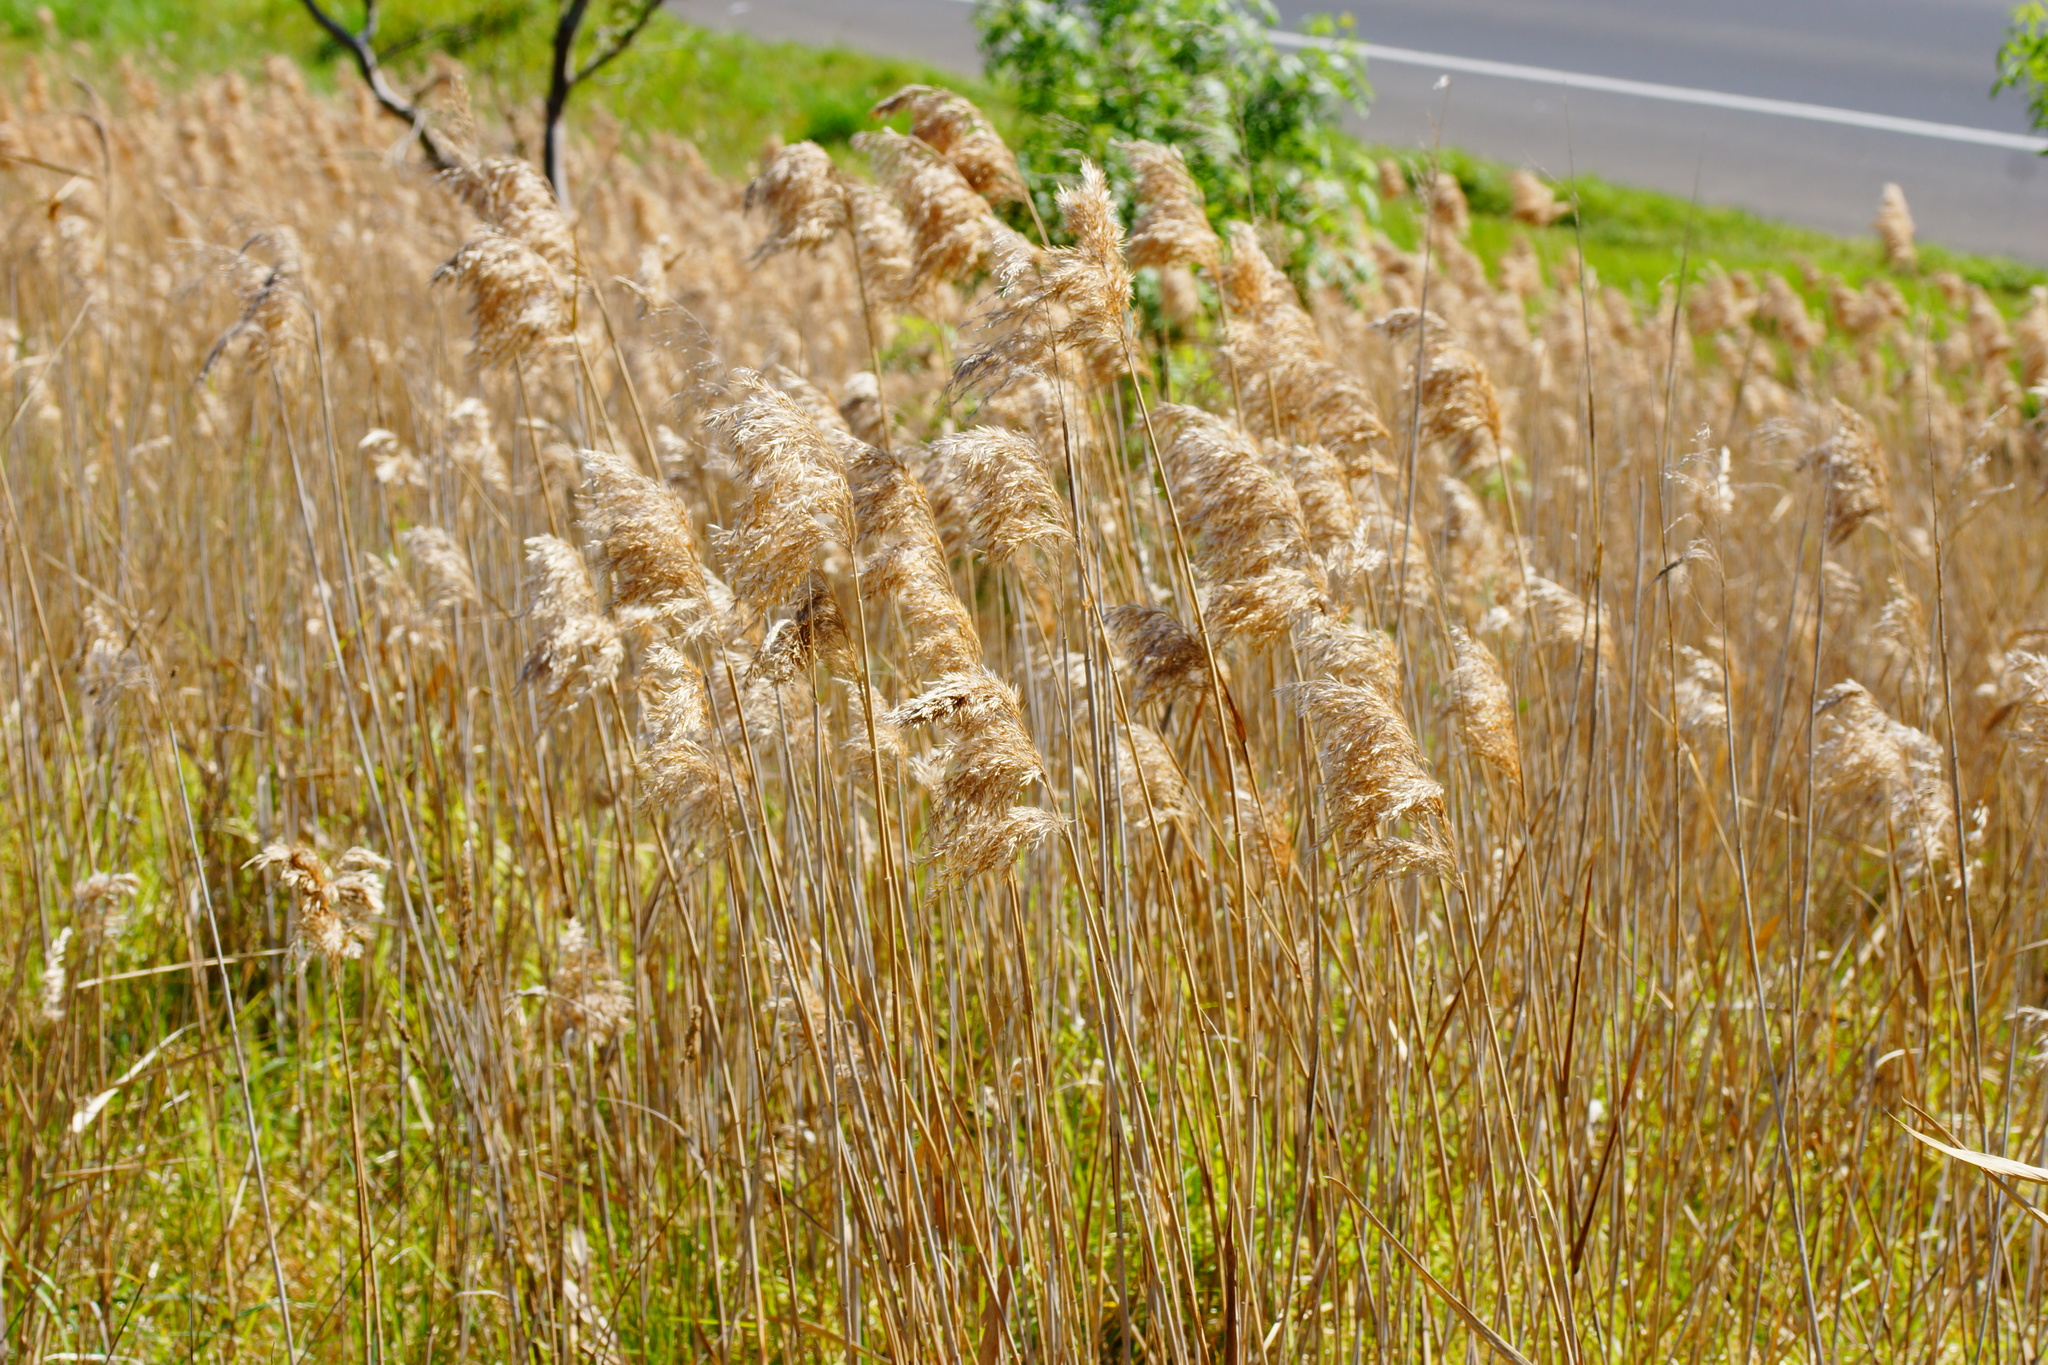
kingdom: Plantae
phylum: Tracheophyta
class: Liliopsida
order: Poales
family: Poaceae
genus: Phragmites
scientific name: Phragmites australis
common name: Common reed
